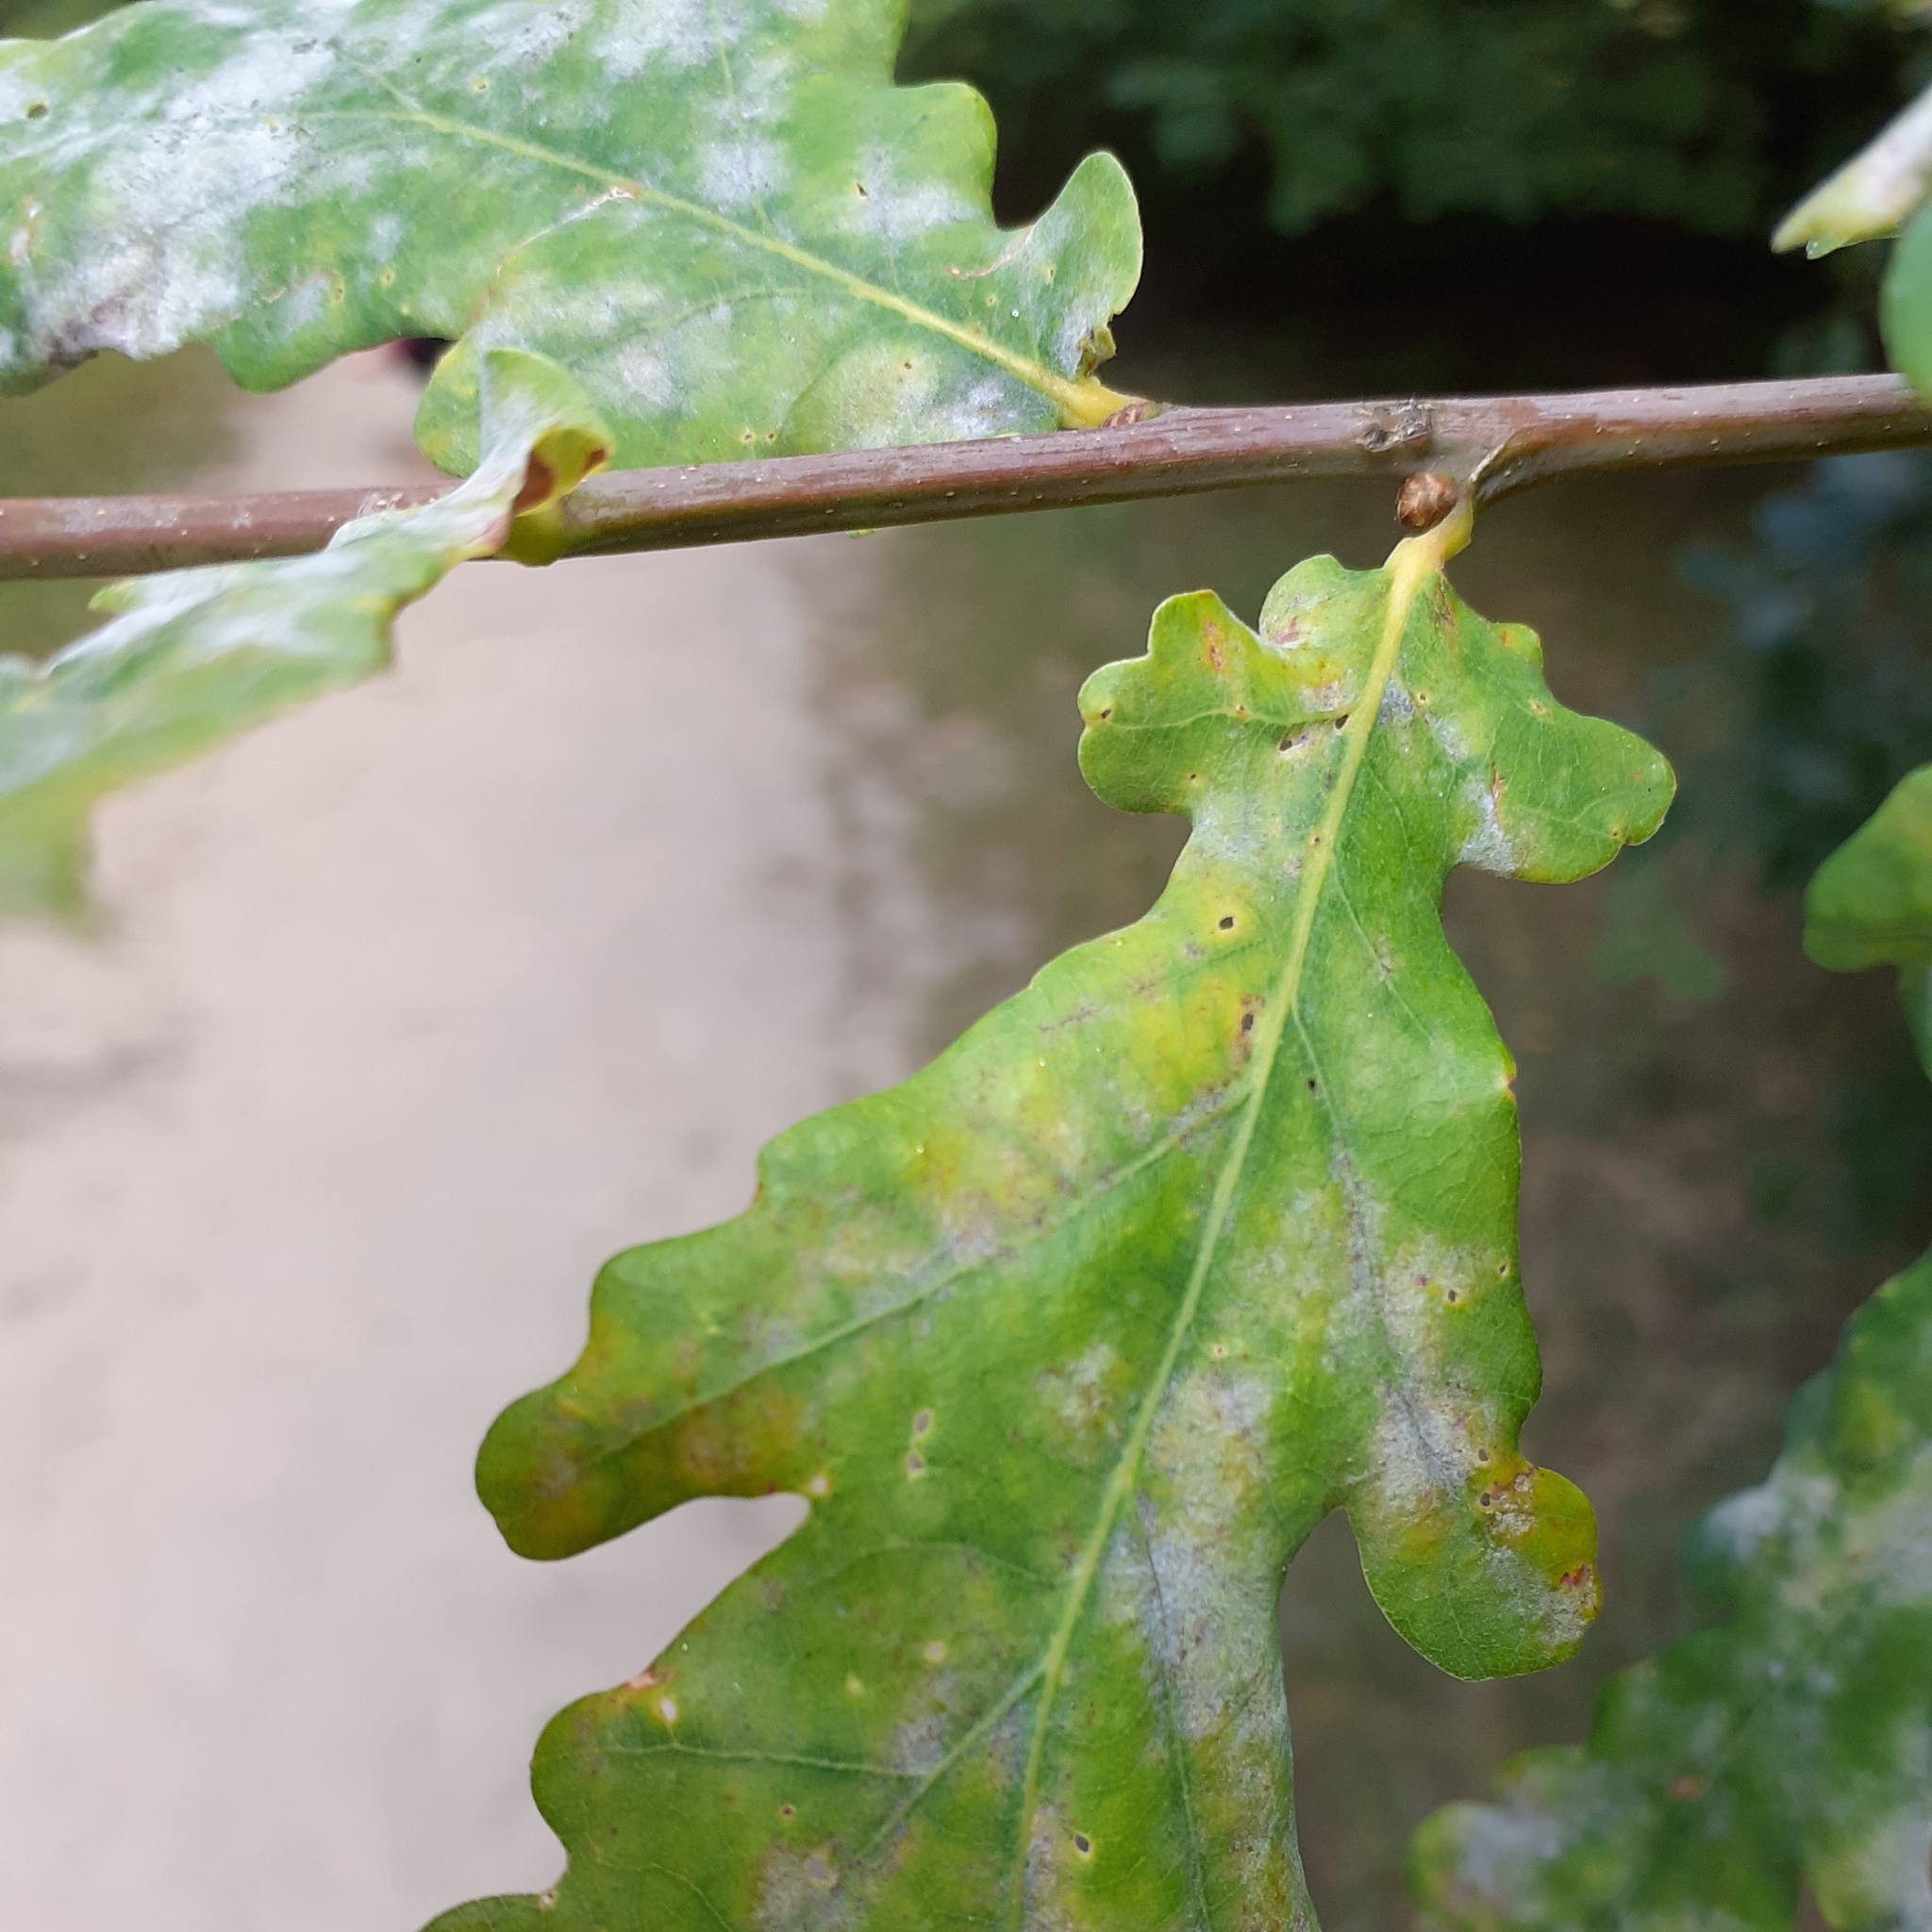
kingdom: Fungi
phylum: Ascomycota
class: Leotiomycetes
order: Helotiales
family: Erysiphaceae
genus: Erysiphe
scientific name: Erysiphe alphitoides
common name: Oak mildew
